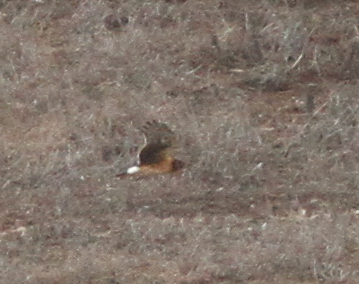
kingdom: Animalia
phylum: Chordata
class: Aves
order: Accipitriformes
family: Accipitridae
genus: Circus
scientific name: Circus cyaneus
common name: Hen harrier
